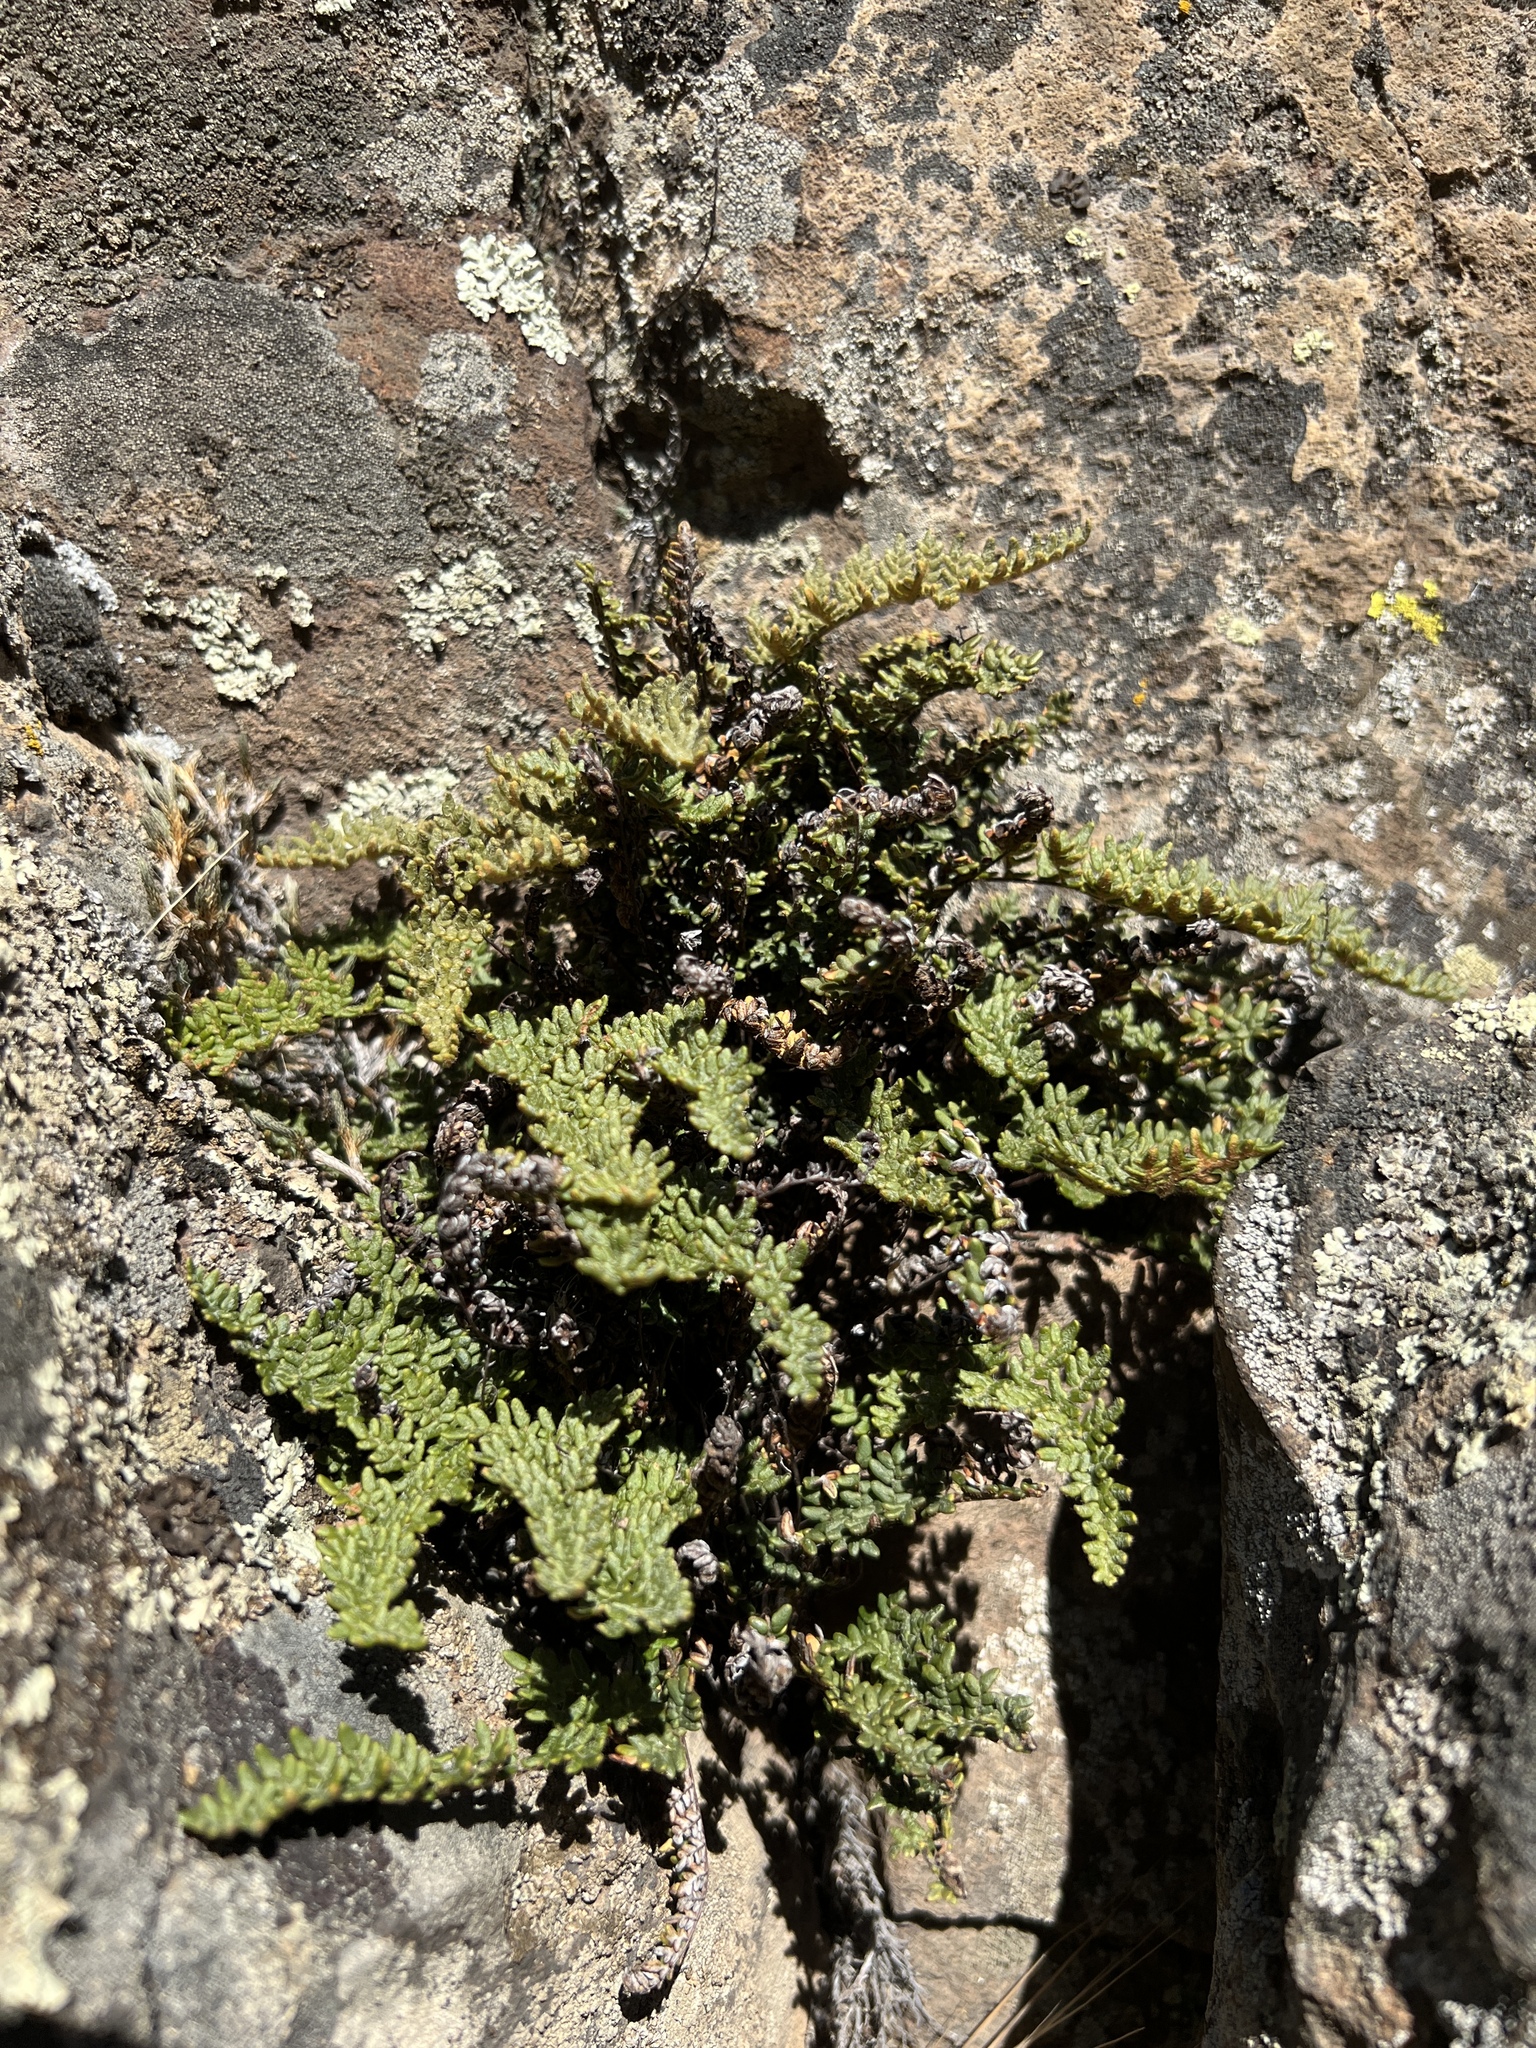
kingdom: Plantae
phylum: Tracheophyta
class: Polypodiopsida
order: Polypodiales
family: Pteridaceae
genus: Myriopteris
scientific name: Myriopteris gracillima
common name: Lace fern
